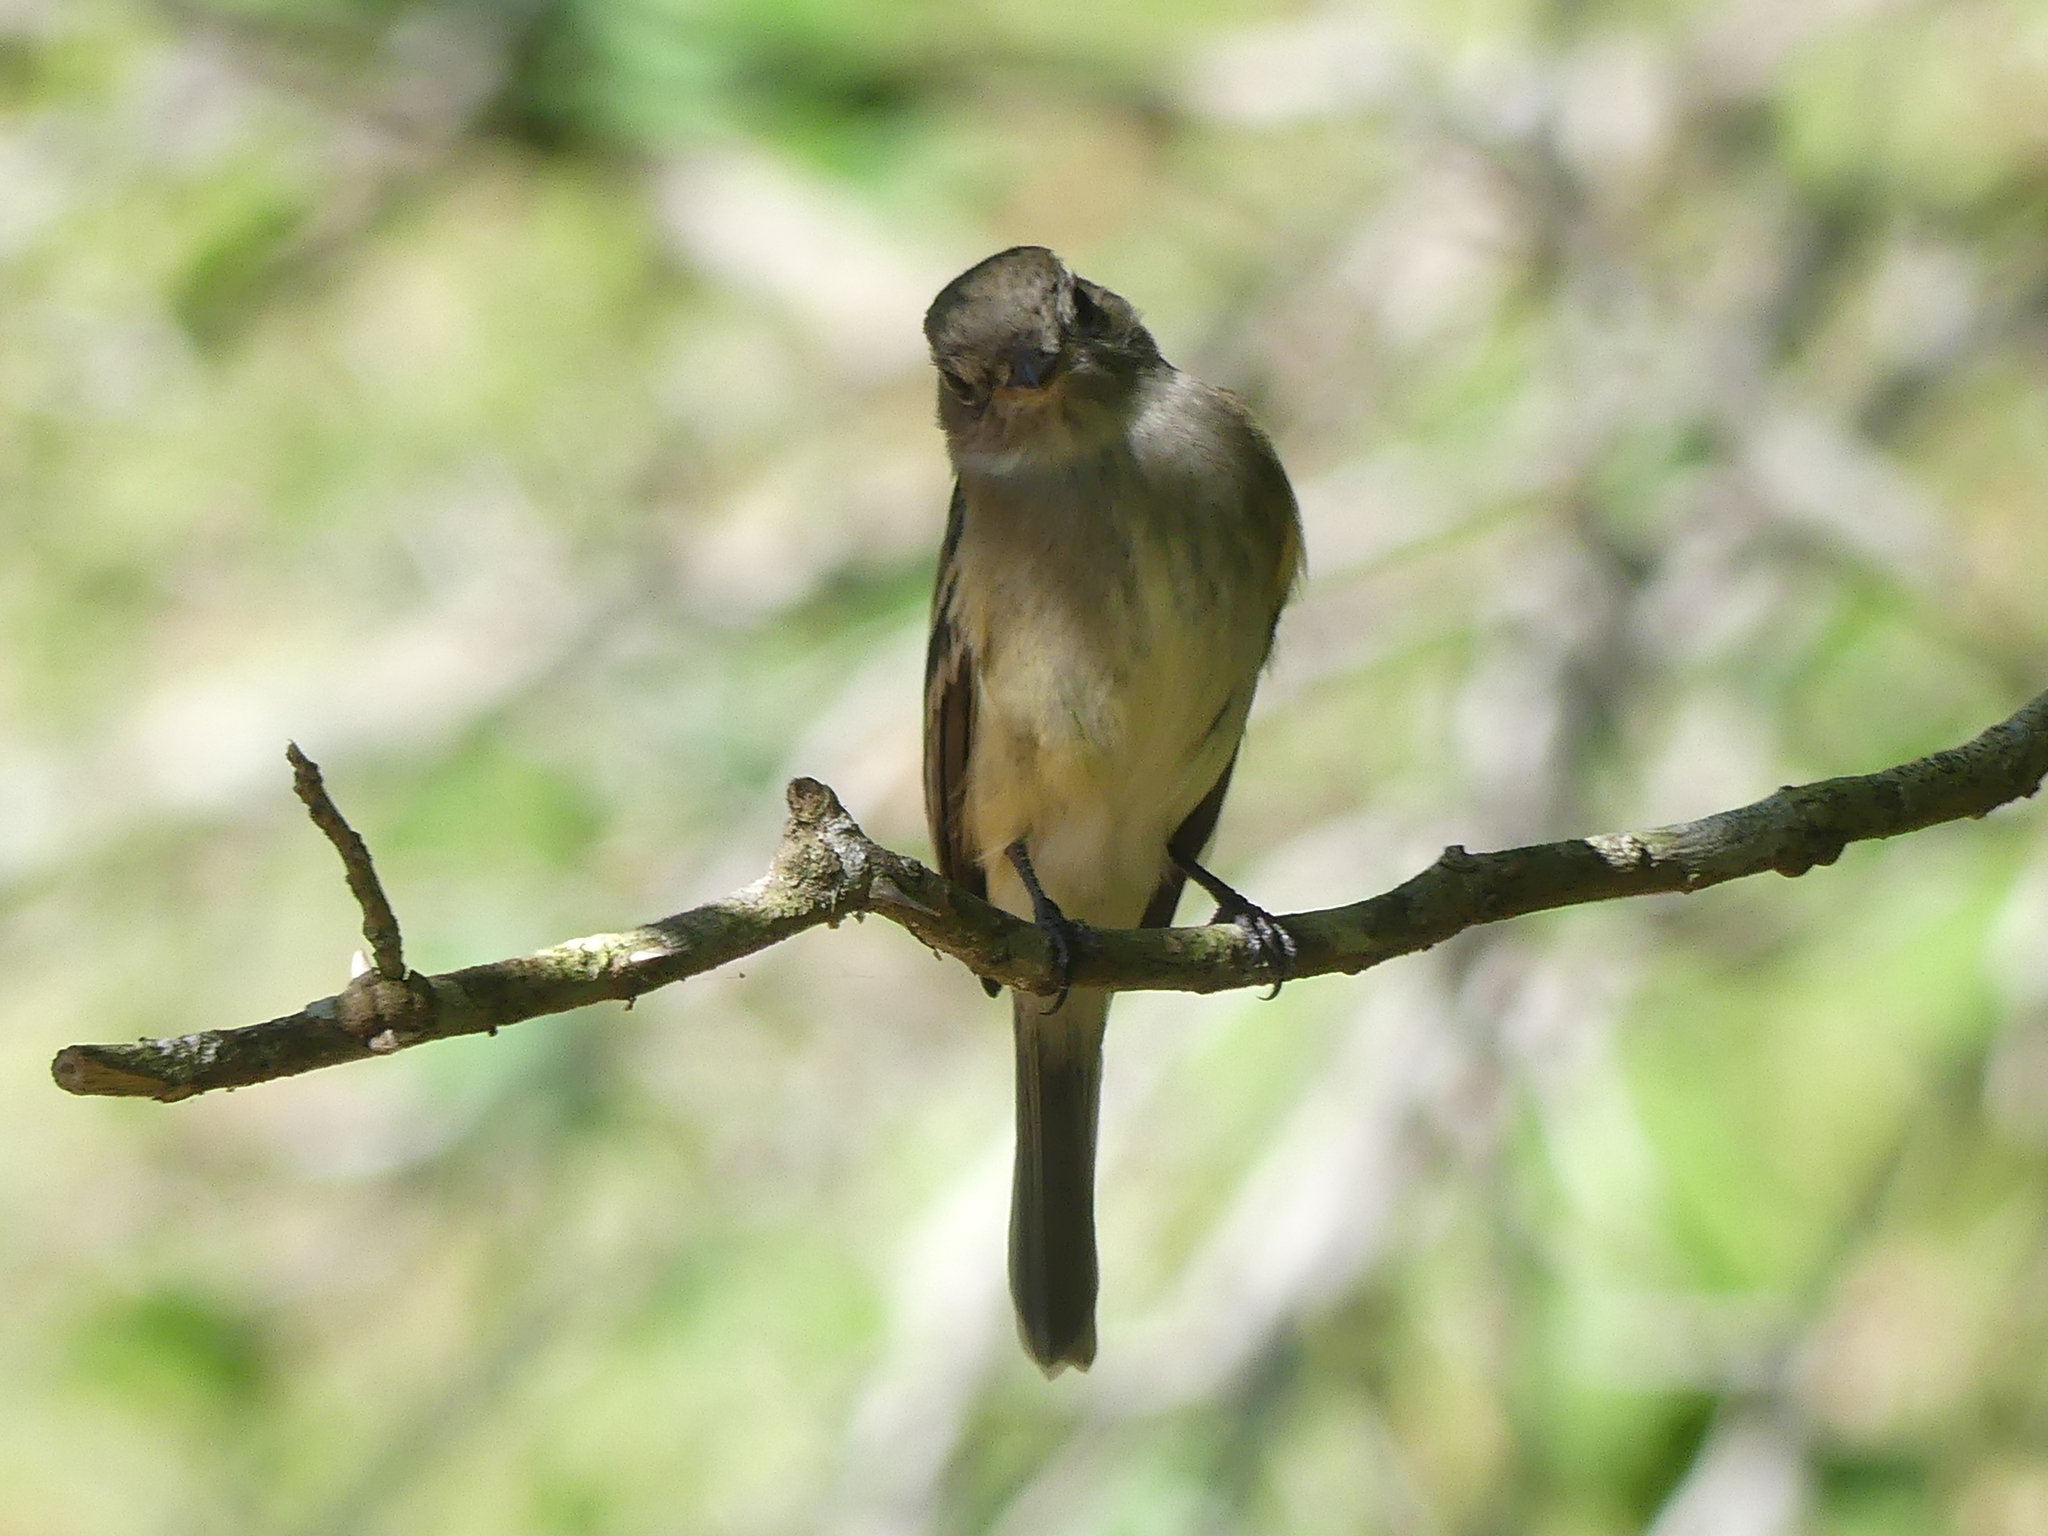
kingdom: Animalia
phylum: Chordata
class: Aves
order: Passeriformes
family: Tyrannidae
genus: Empidonax
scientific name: Empidonax minimus
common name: Least flycatcher
